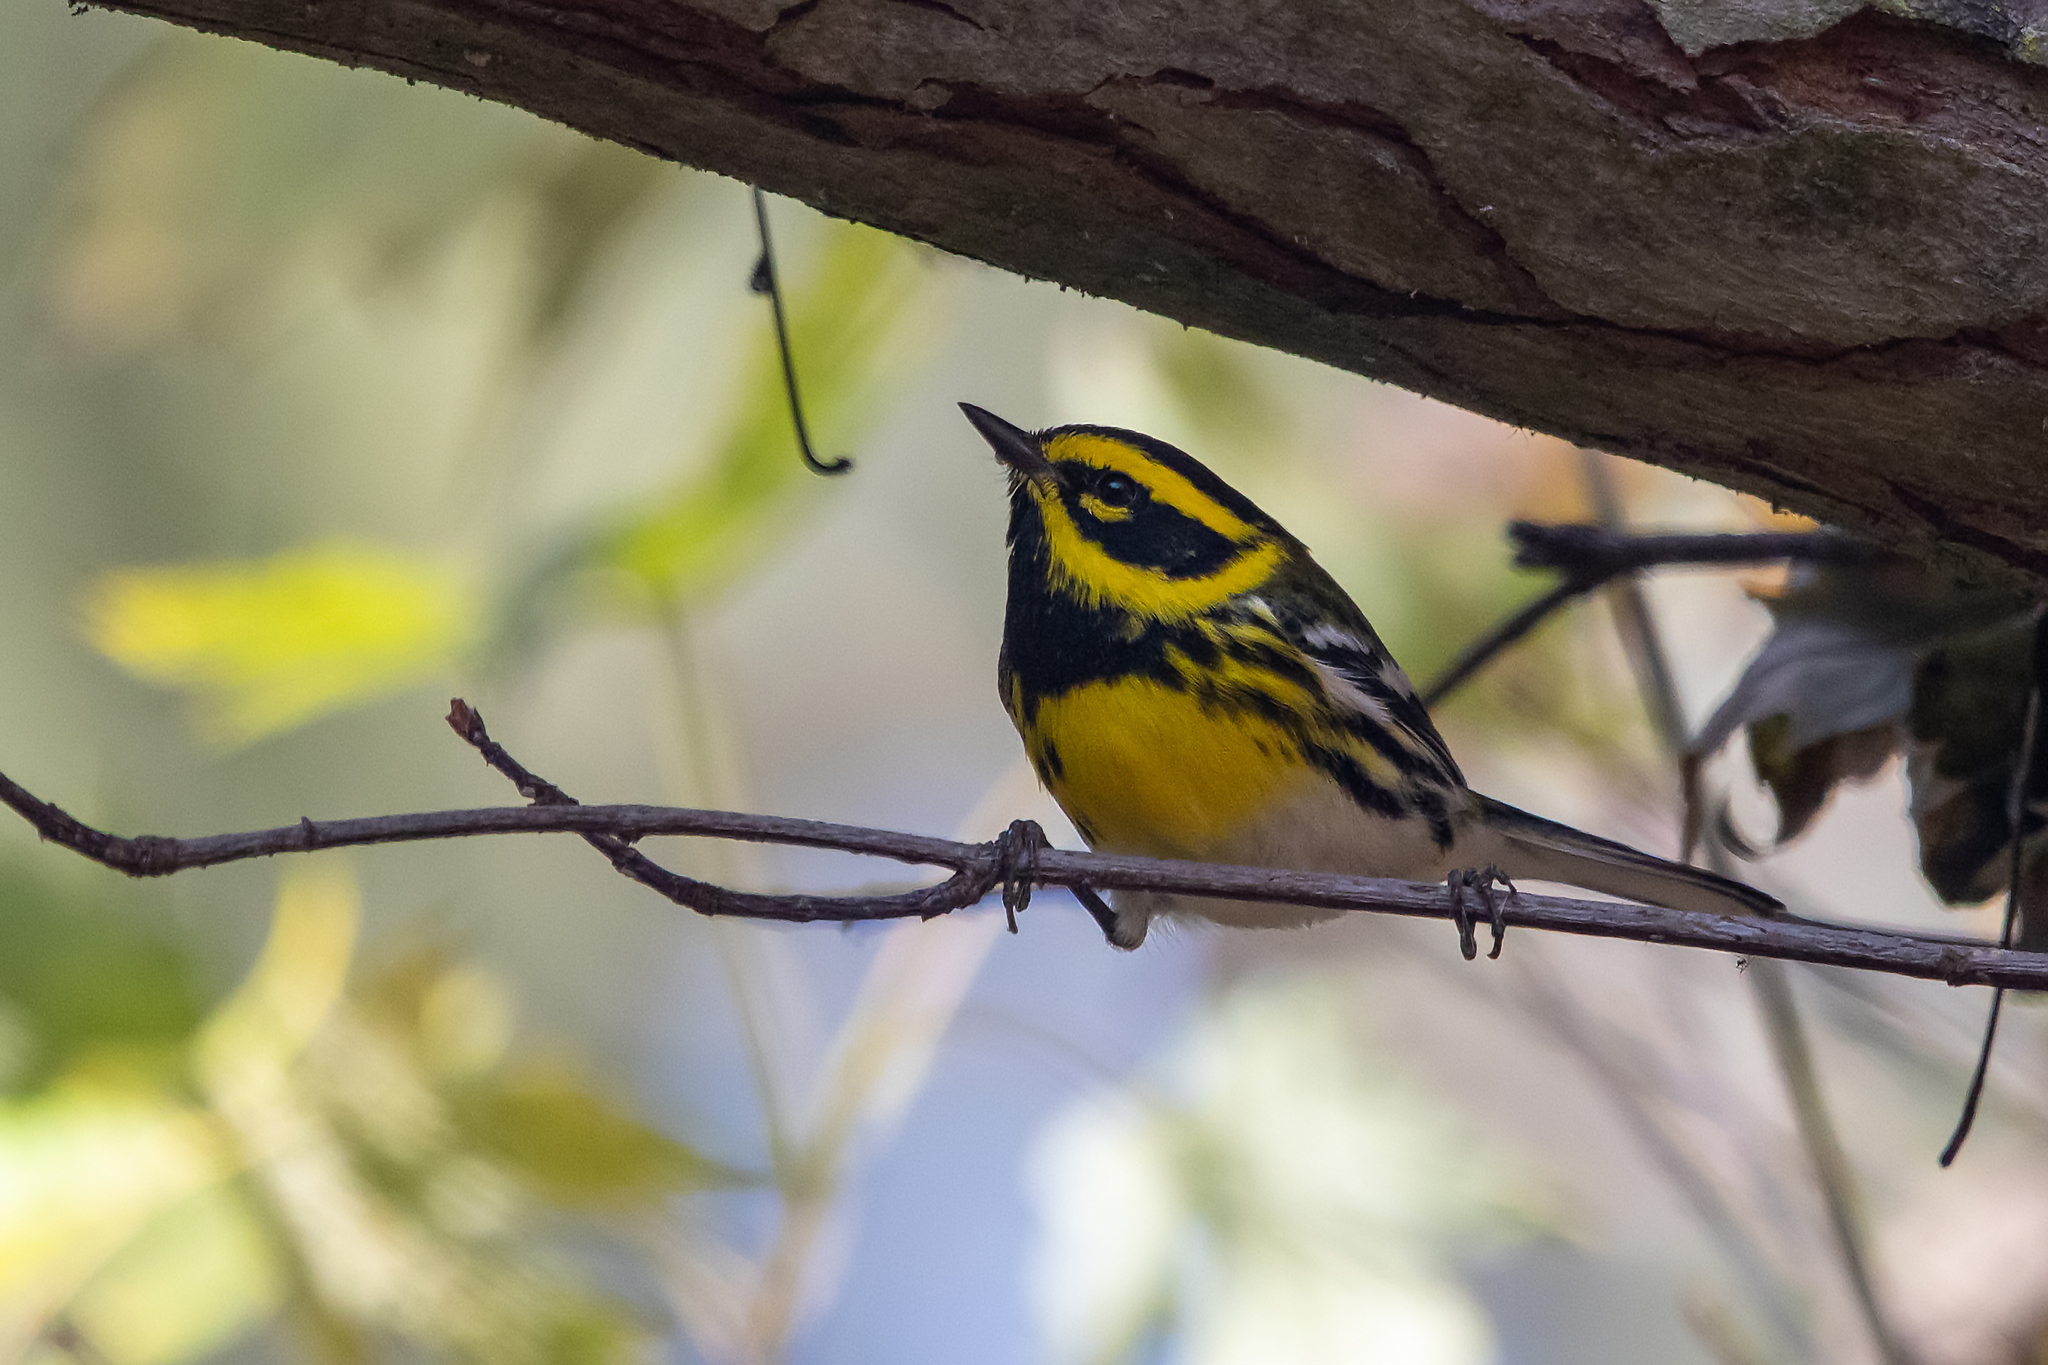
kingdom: Animalia
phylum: Chordata
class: Aves
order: Passeriformes
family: Parulidae
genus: Setophaga
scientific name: Setophaga townsendi
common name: Townsend's warbler
